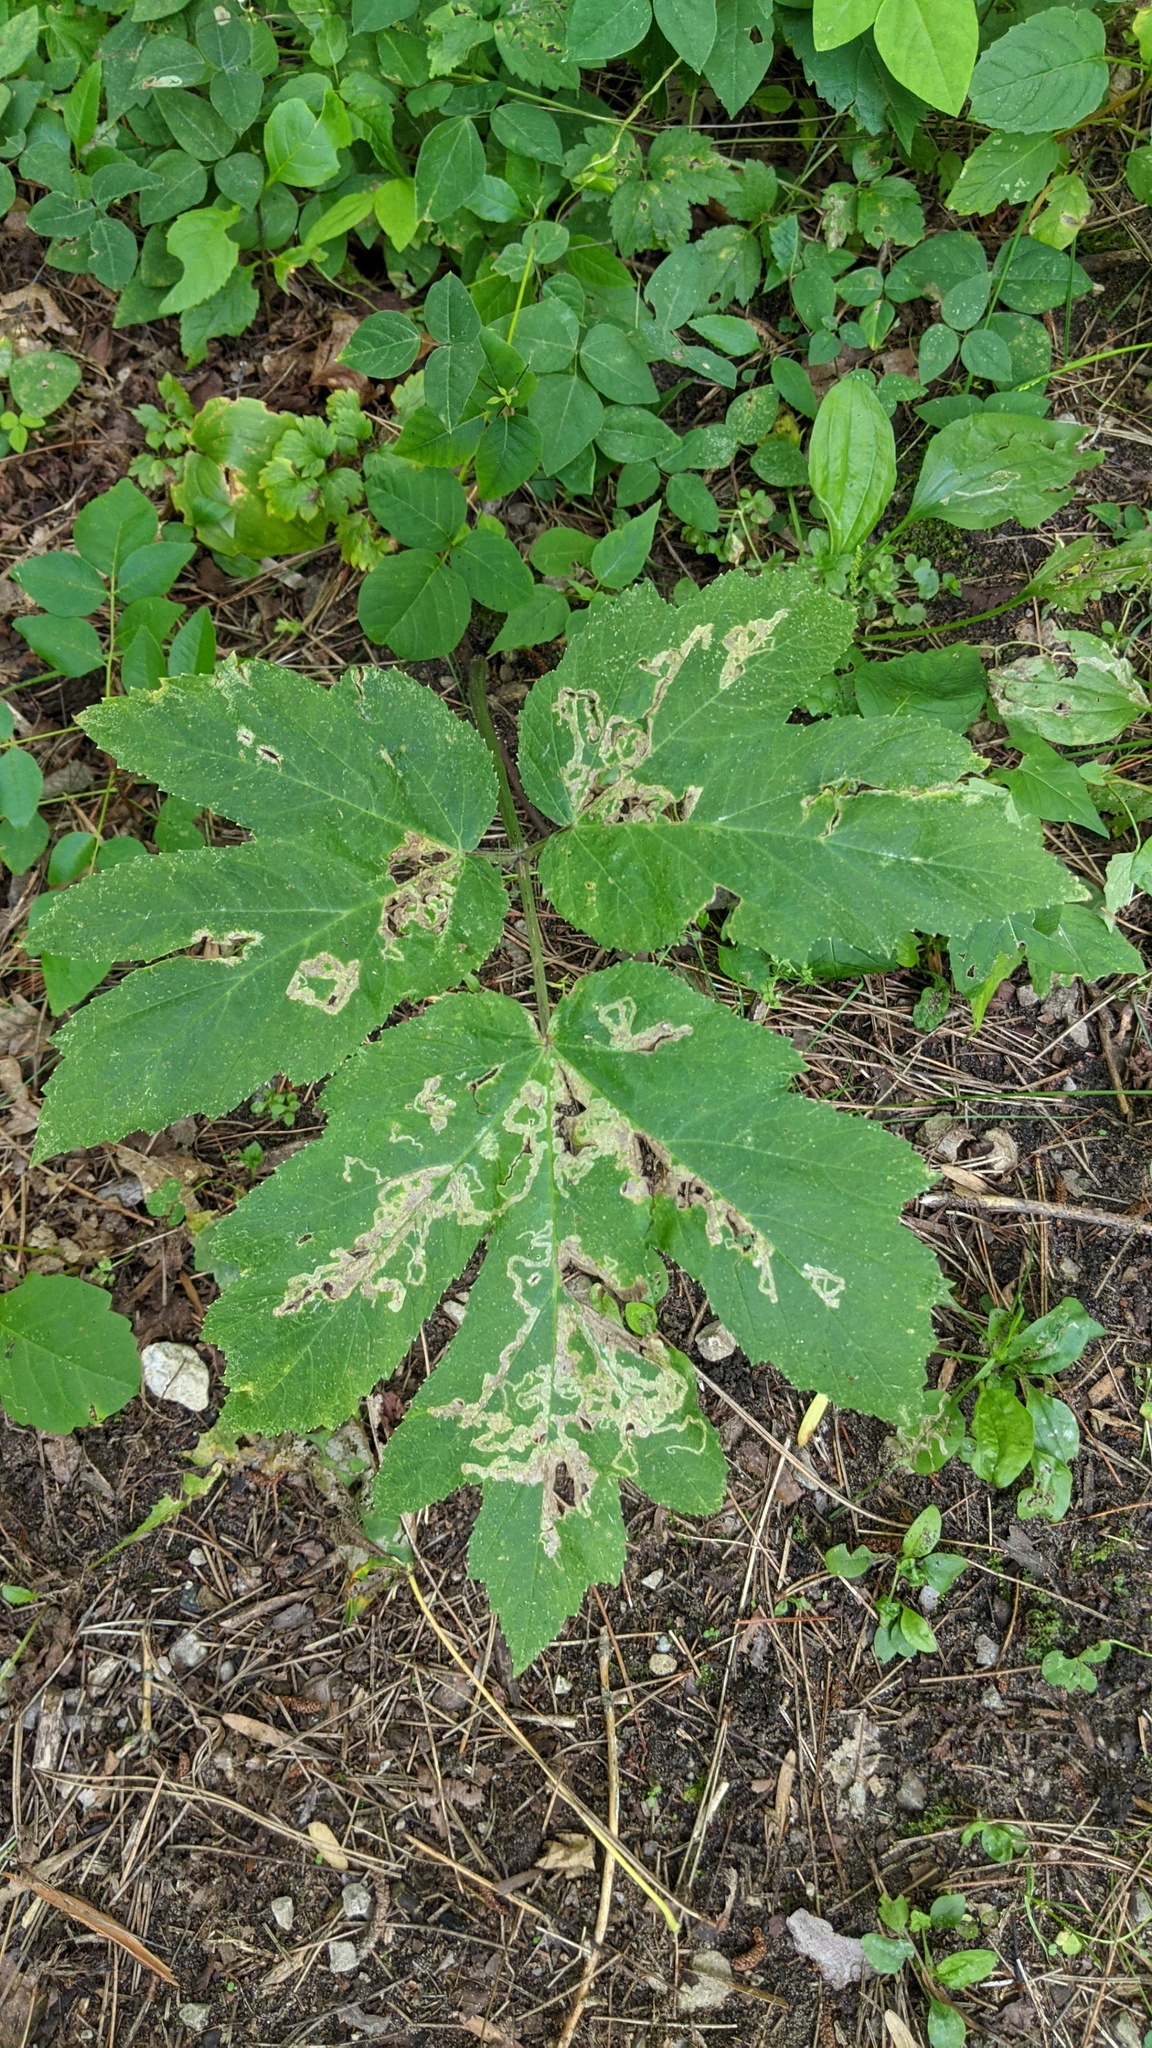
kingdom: Plantae
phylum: Tracheophyta
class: Magnoliopsida
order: Apiales
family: Apiaceae
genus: Heracleum
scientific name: Heracleum maximum
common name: American cow parsnip
